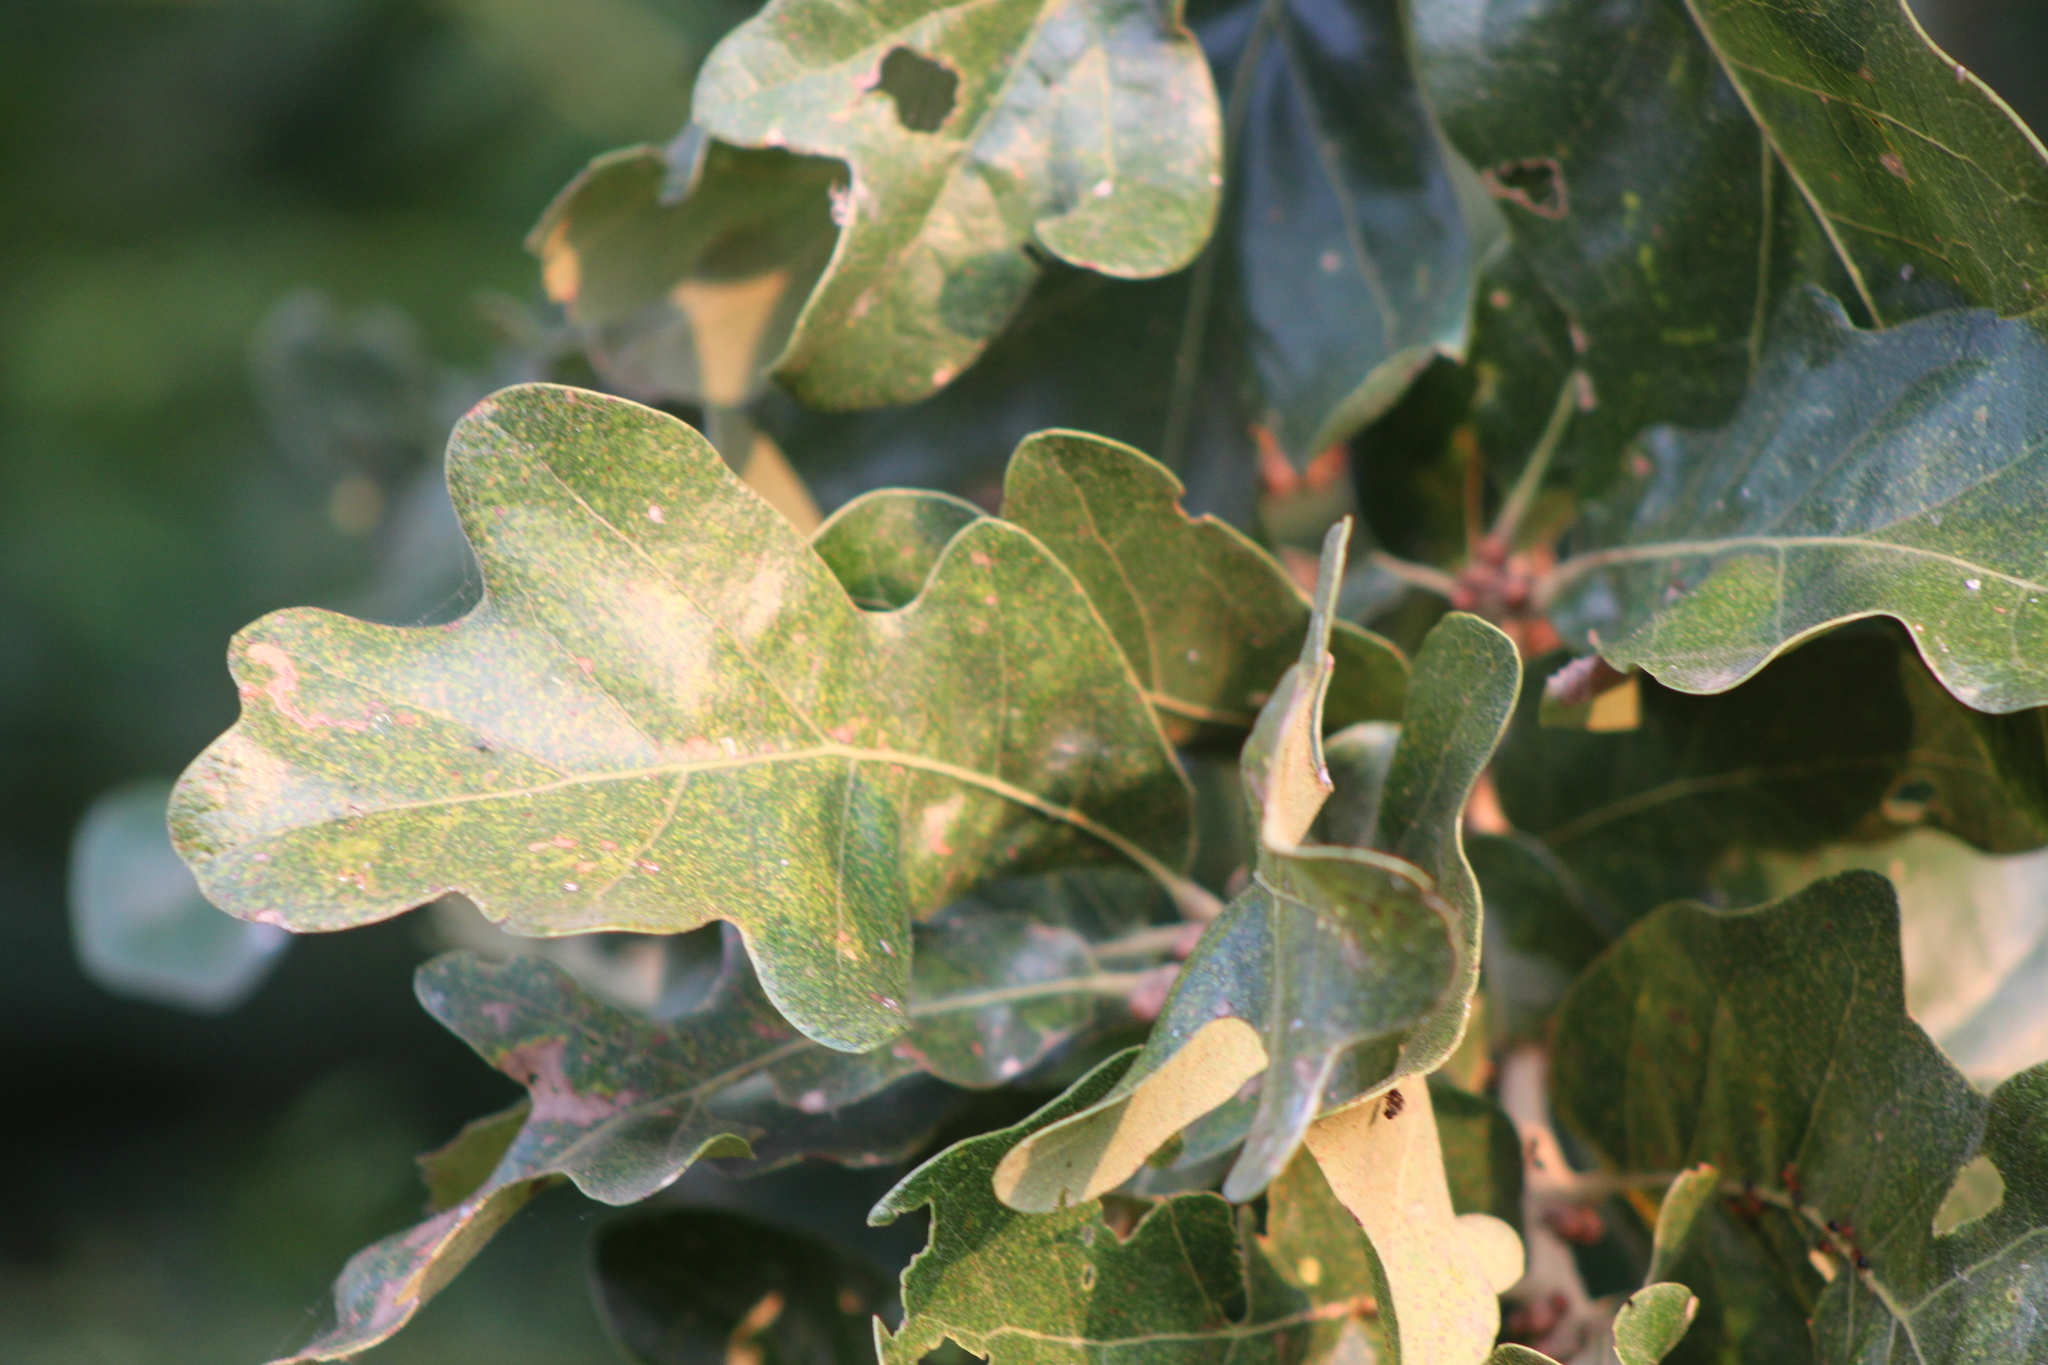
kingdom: Plantae
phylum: Tracheophyta
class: Magnoliopsida
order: Fagales
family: Fagaceae
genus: Quercus
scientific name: Quercus stellata
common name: Post oak
